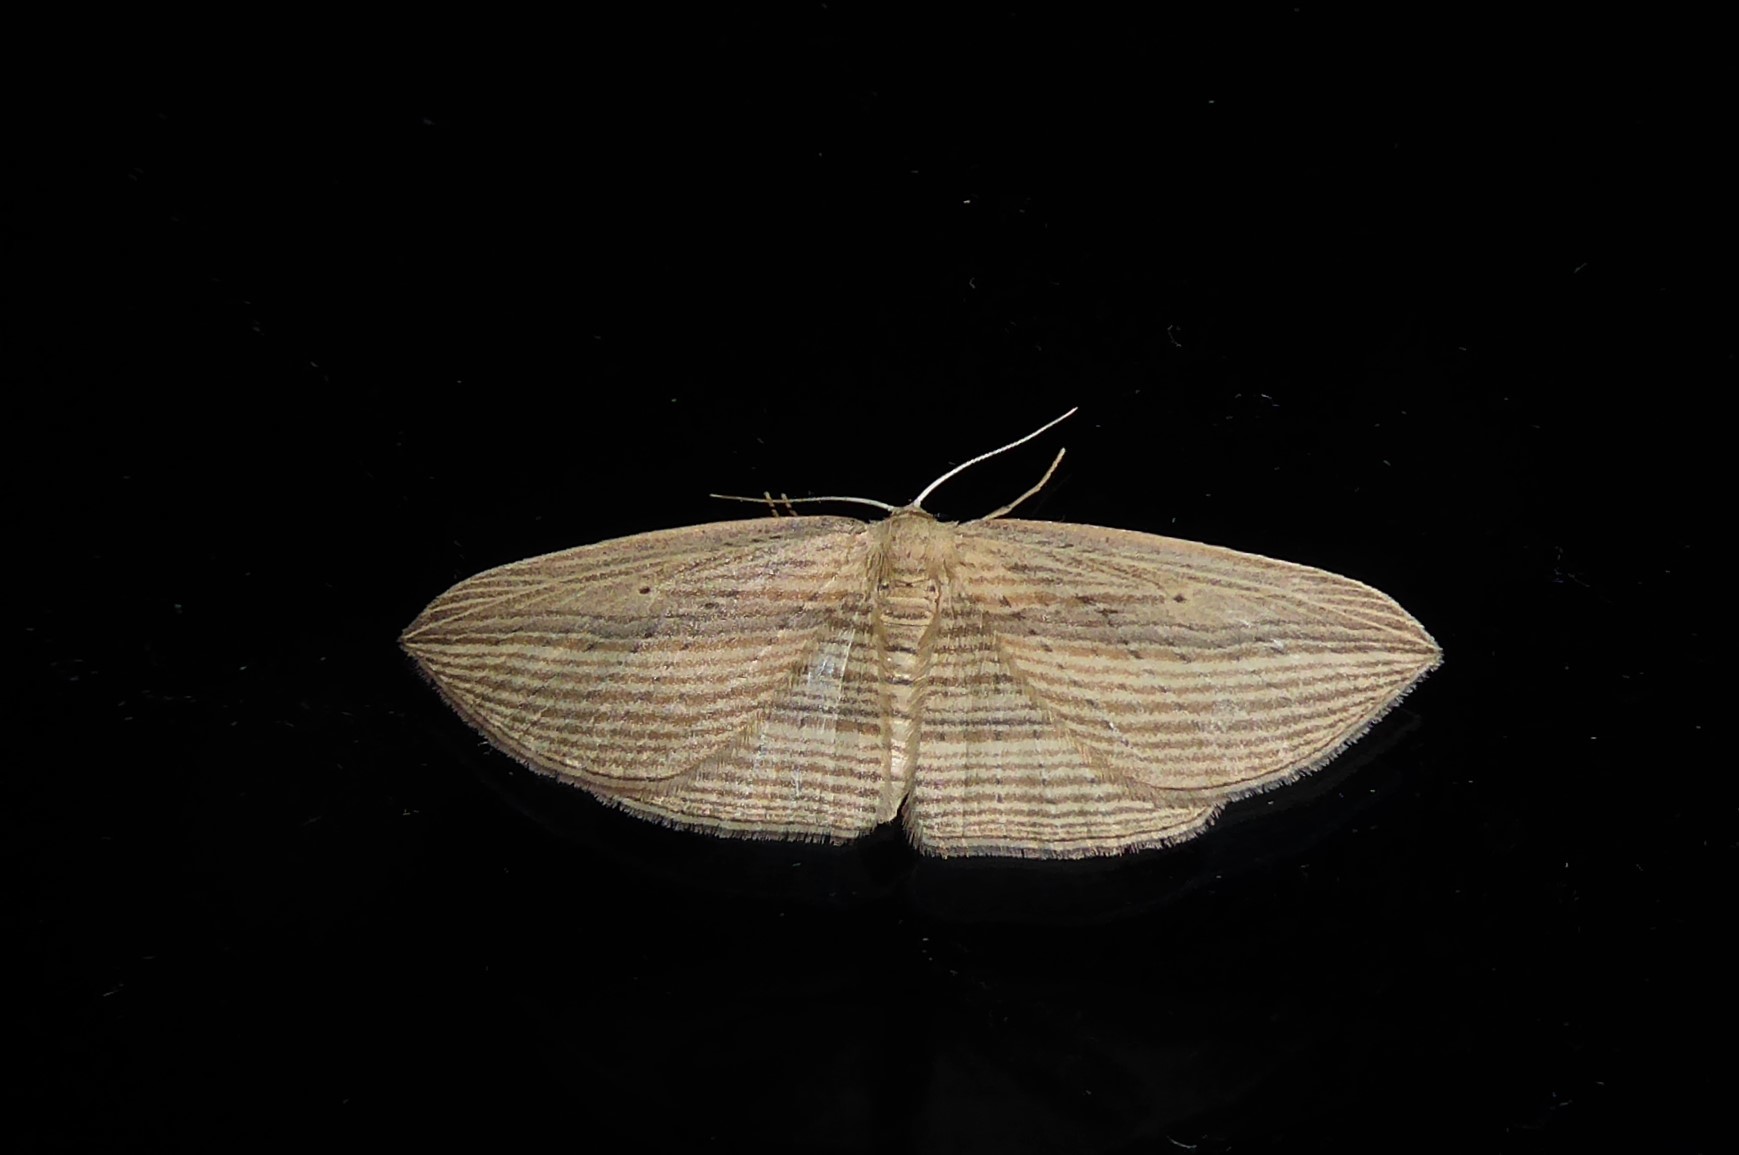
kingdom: Animalia
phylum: Arthropoda
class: Insecta
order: Lepidoptera
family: Geometridae
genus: Epiphryne
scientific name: Epiphryne verriculata
